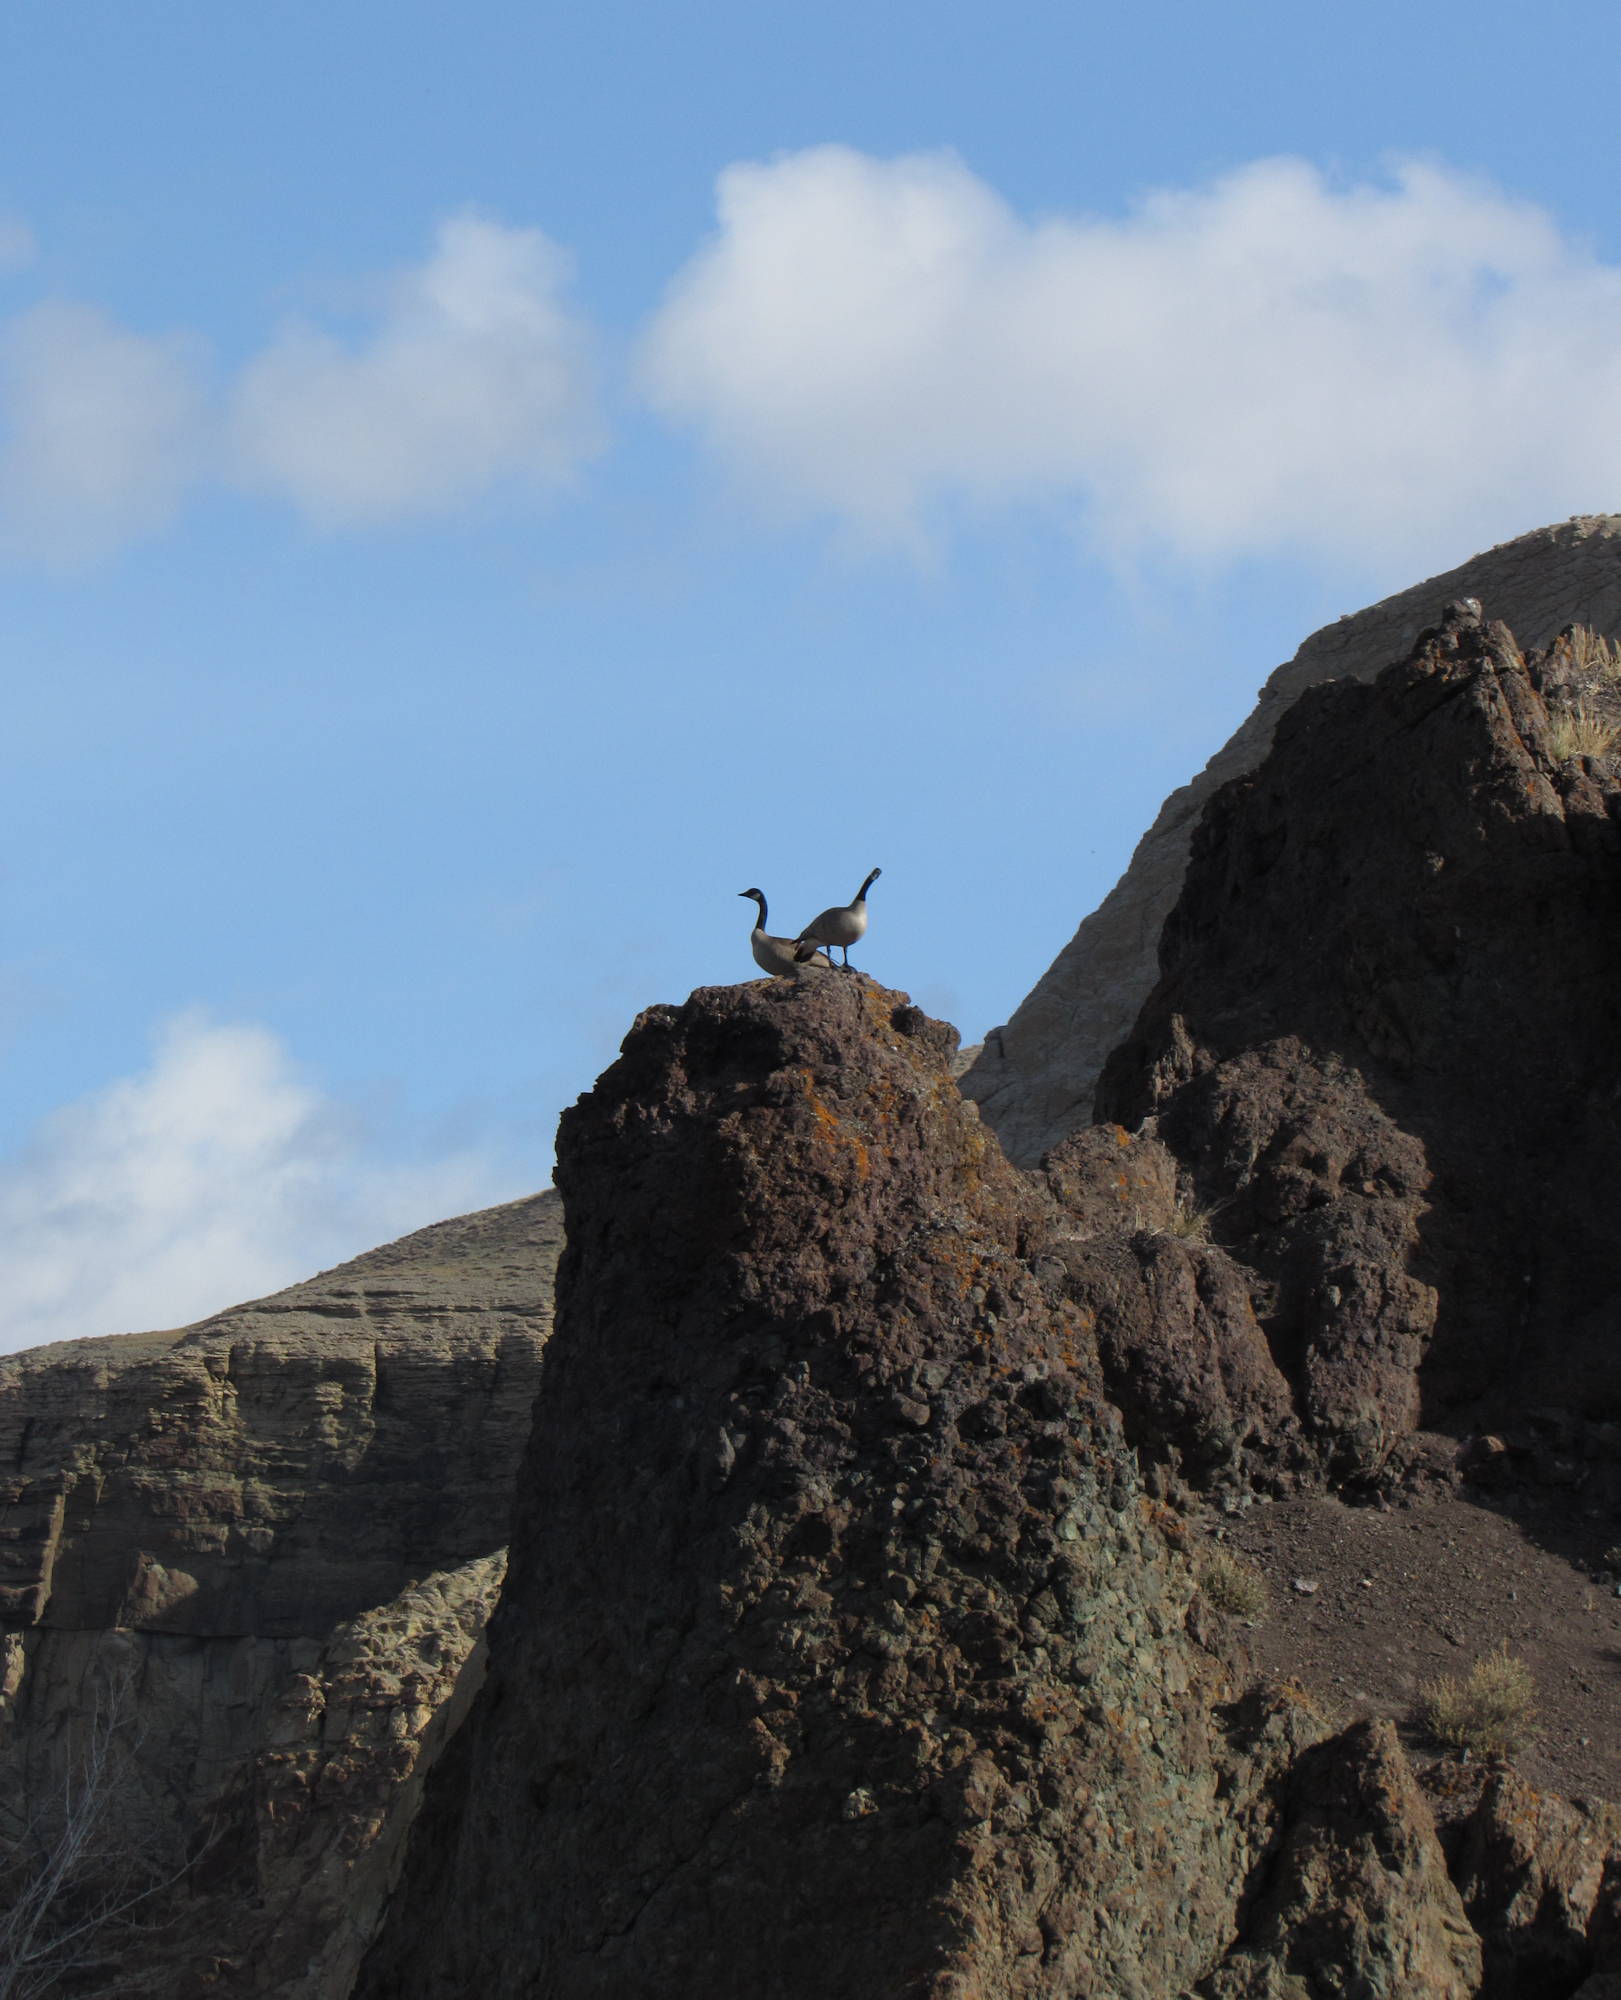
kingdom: Animalia
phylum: Chordata
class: Aves
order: Anseriformes
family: Anatidae
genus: Branta
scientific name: Branta canadensis
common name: Canada goose
